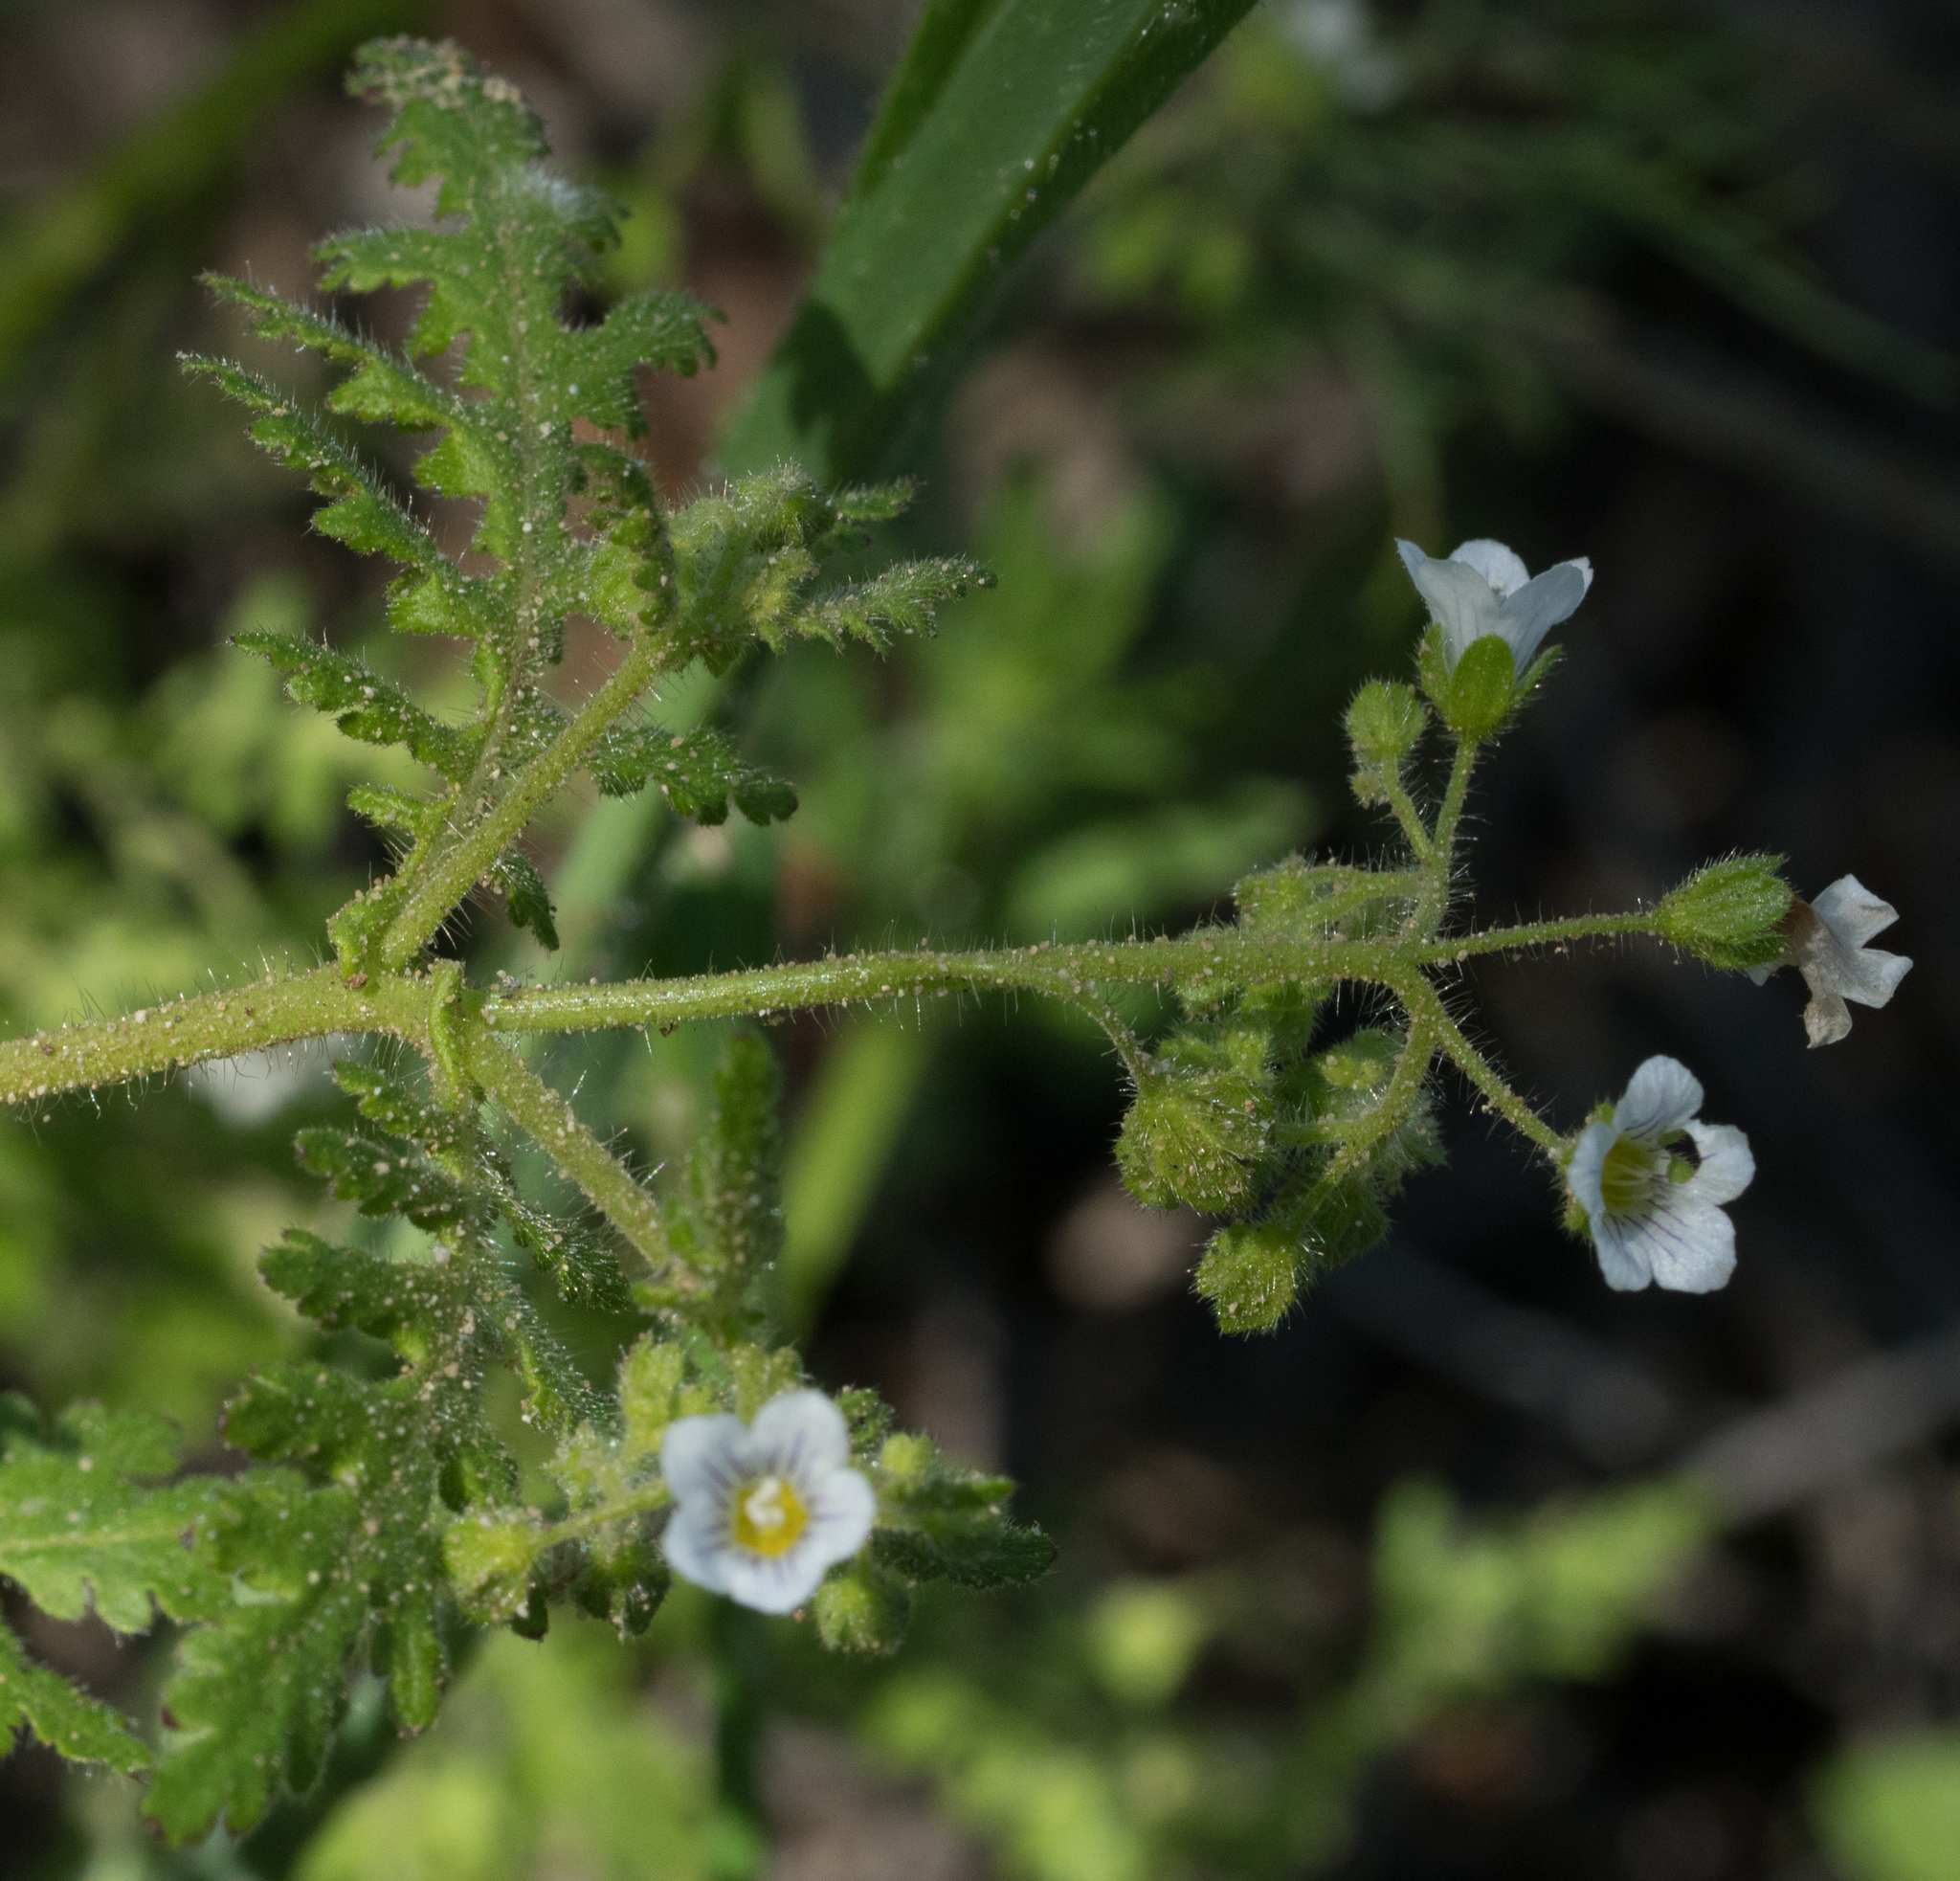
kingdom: Plantae
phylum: Tracheophyta
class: Magnoliopsida
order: Boraginales
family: Hydrophyllaceae
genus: Eucrypta
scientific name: Eucrypta chrysanthemifolia
